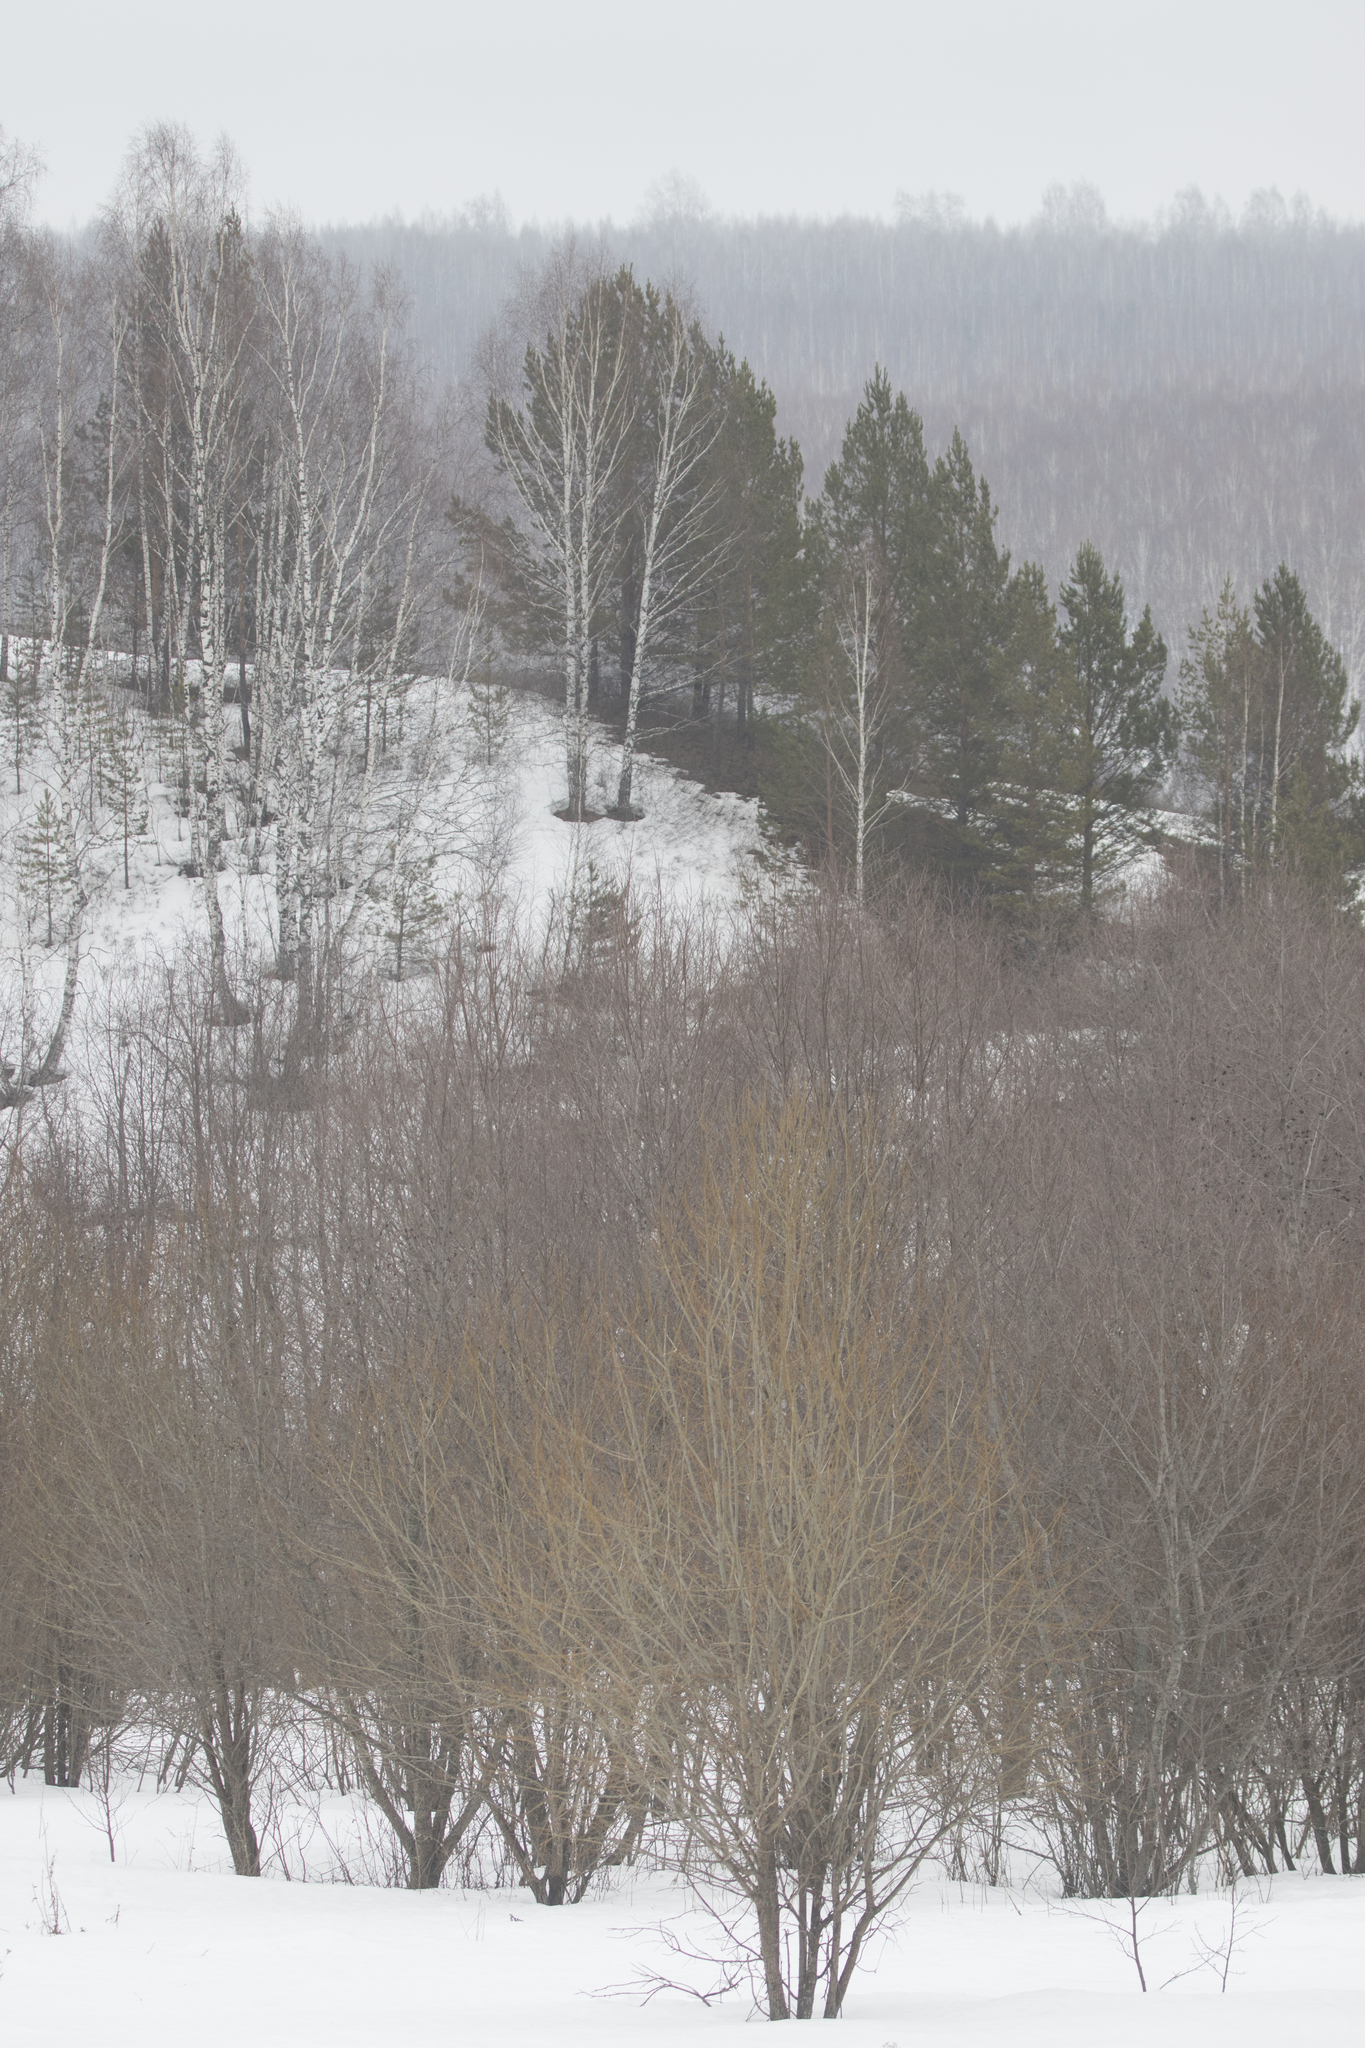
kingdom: Plantae
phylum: Tracheophyta
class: Pinopsida
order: Pinales
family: Pinaceae
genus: Pinus
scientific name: Pinus sylvestris
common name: Scots pine
